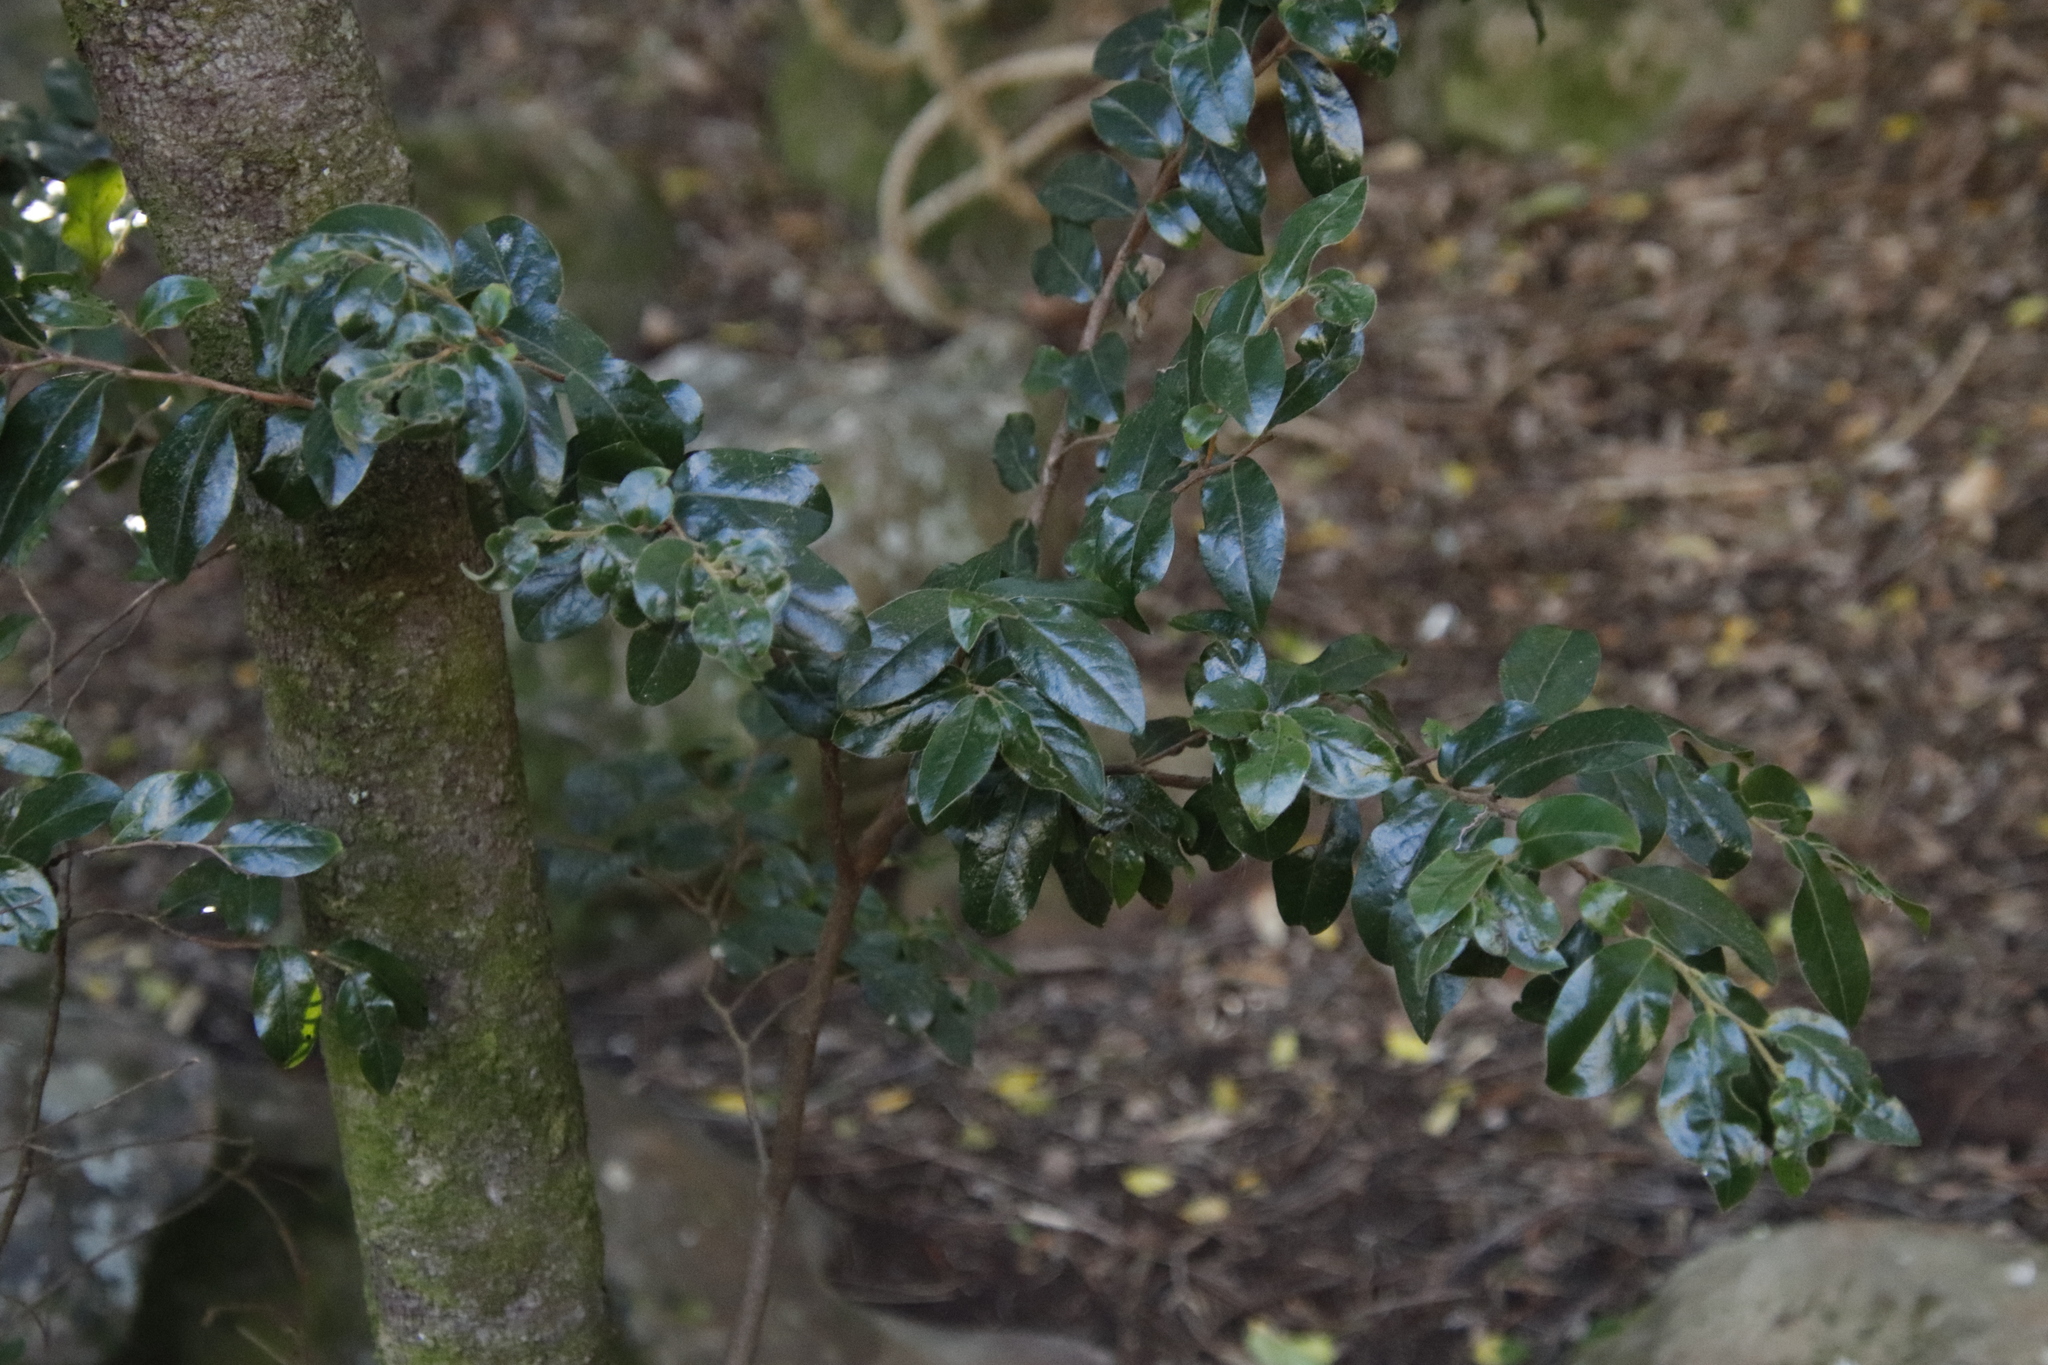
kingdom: Plantae
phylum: Tracheophyta
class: Magnoliopsida
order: Ericales
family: Ebenaceae
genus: Diospyros
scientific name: Diospyros whyteana
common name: Bladder-nut
